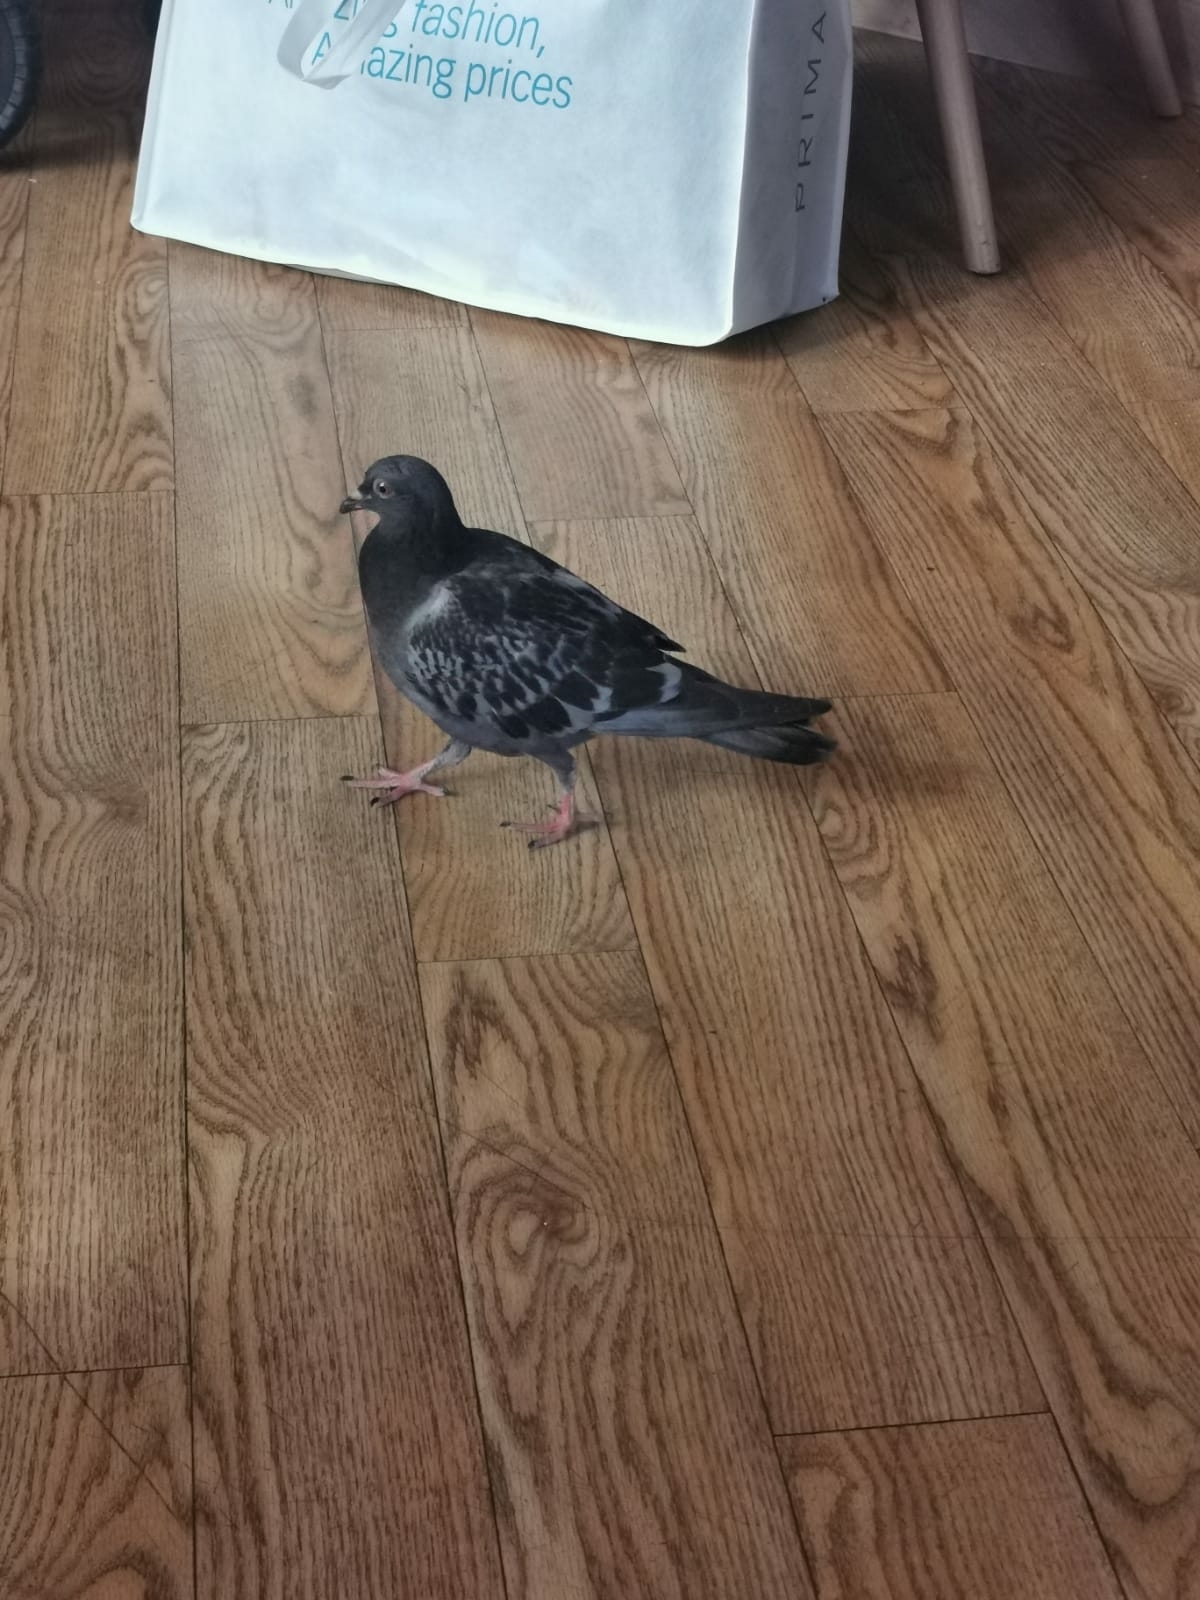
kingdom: Animalia
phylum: Chordata
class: Aves
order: Columbiformes
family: Columbidae
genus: Columba
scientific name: Columba livia
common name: Rock pigeon
